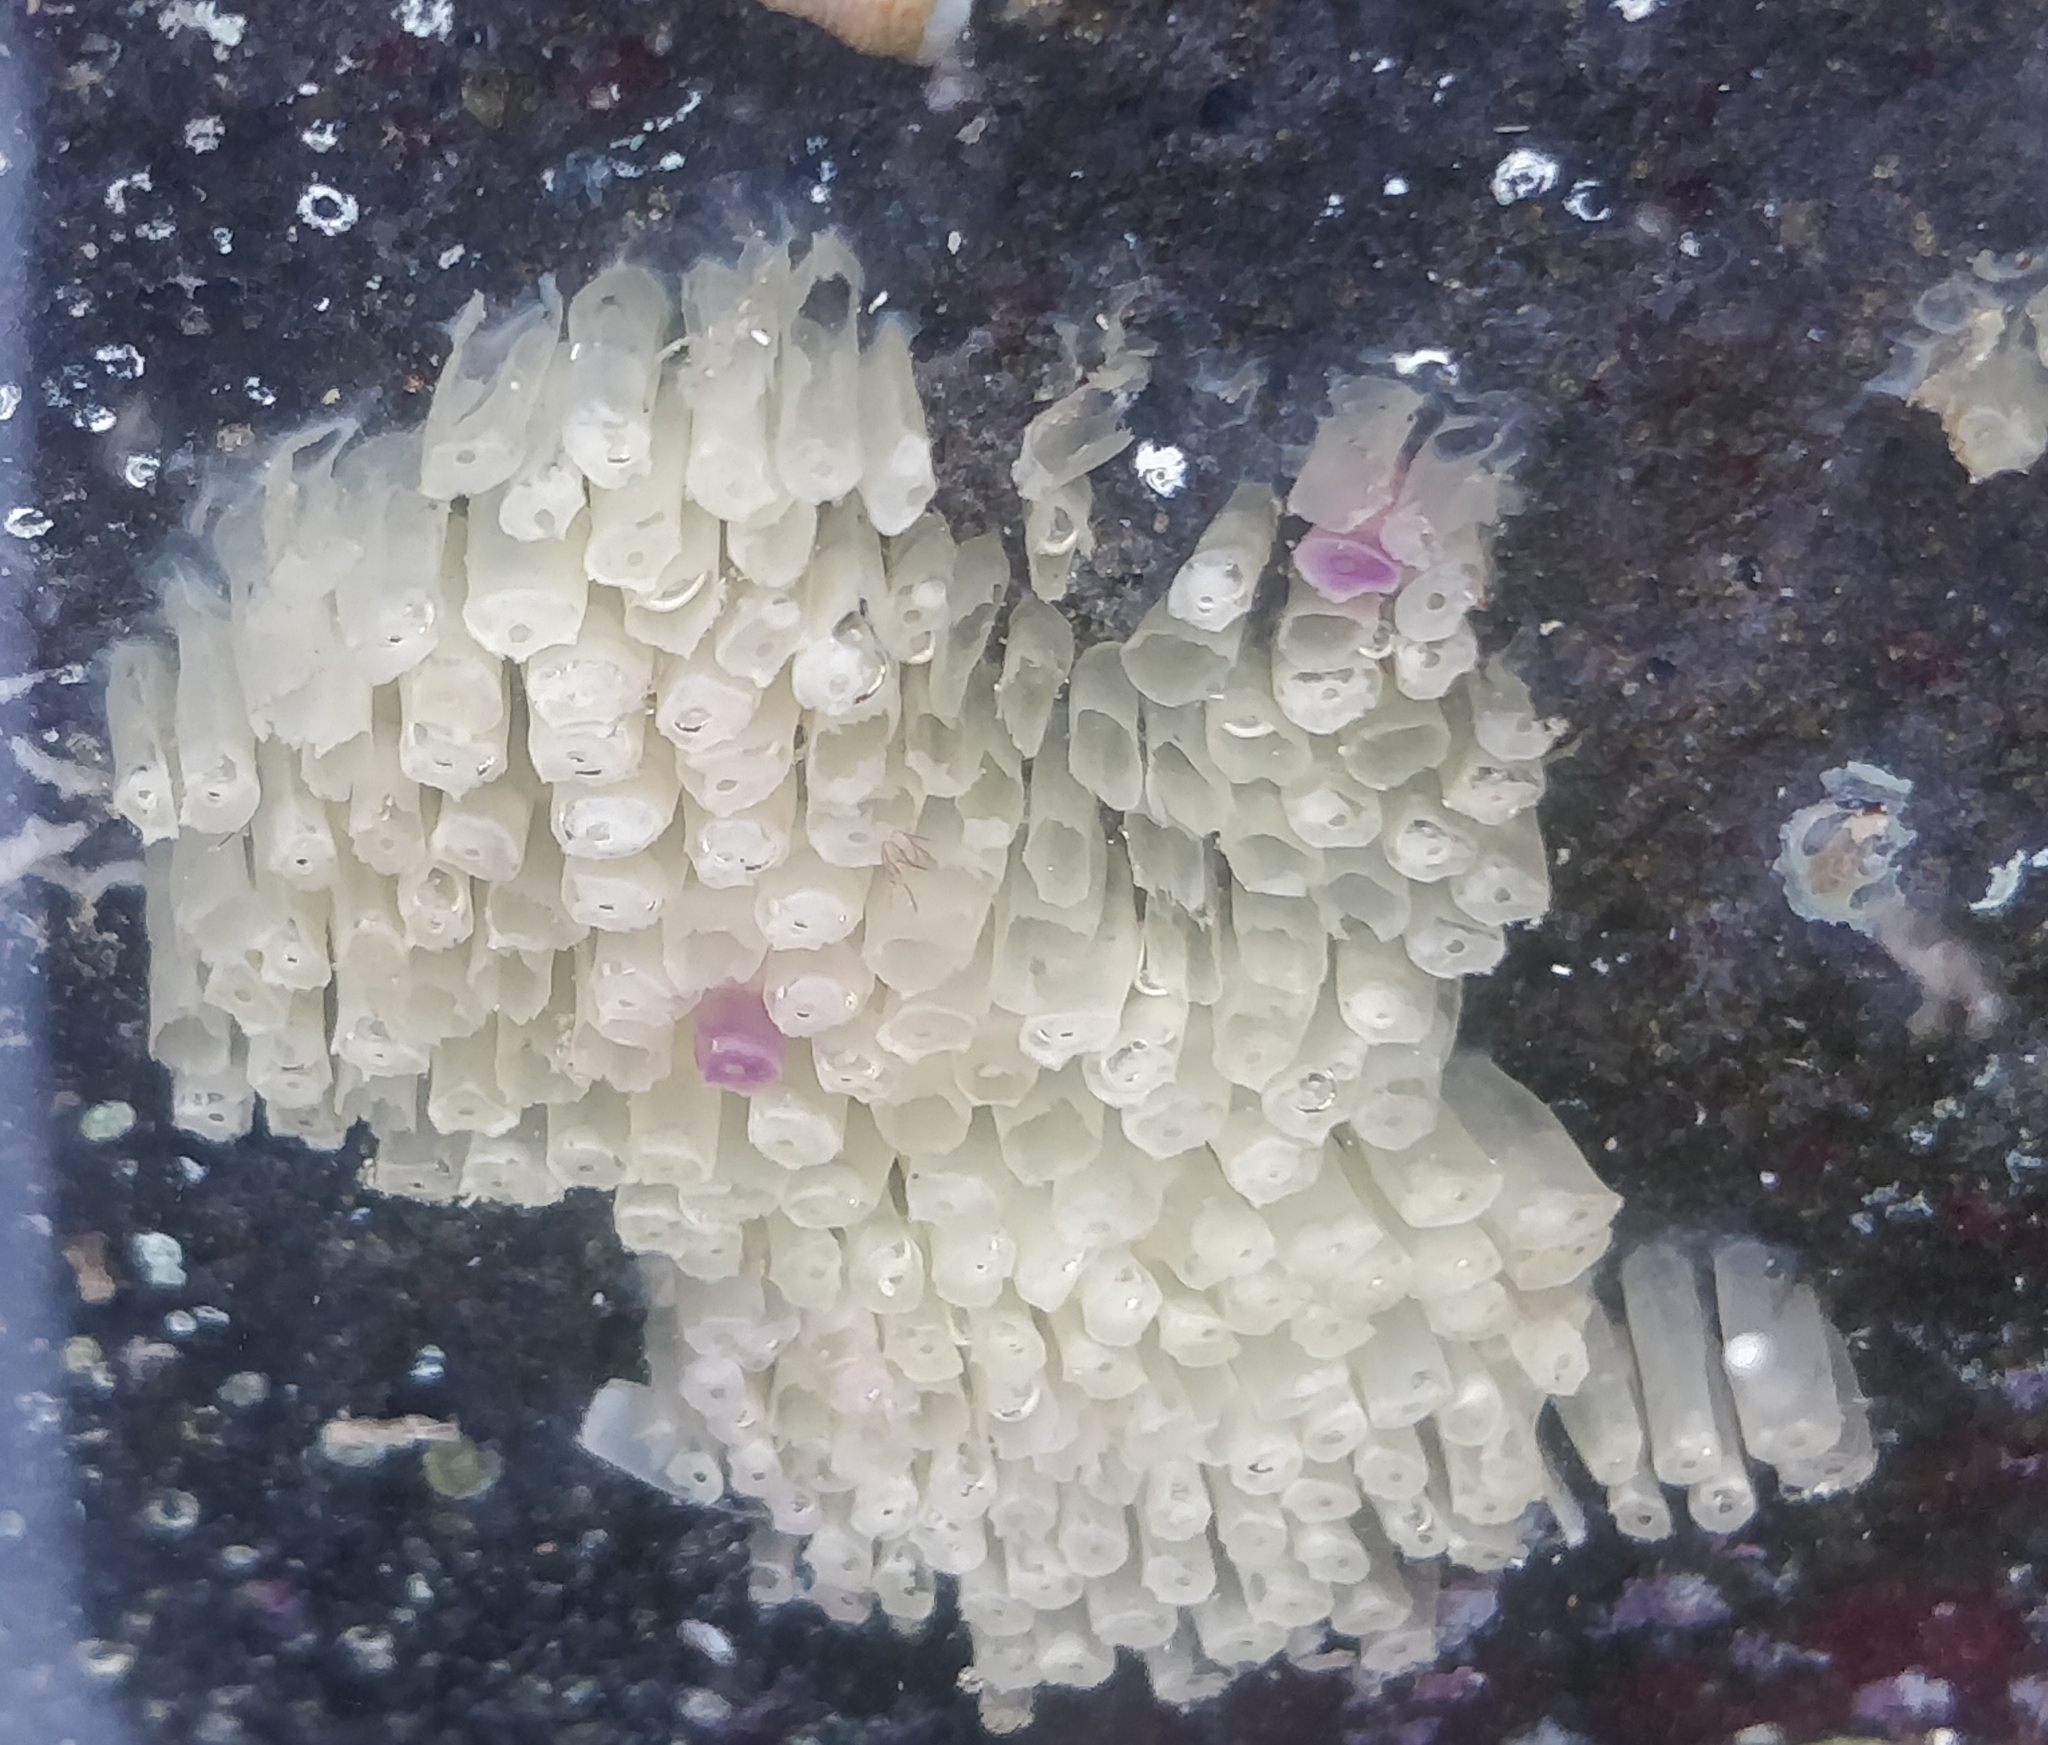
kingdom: Animalia
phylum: Mollusca
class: Gastropoda
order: Neogastropoda
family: Muricidae
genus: Stramonita
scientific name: Stramonita haemastoma
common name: Florida dog winkle
